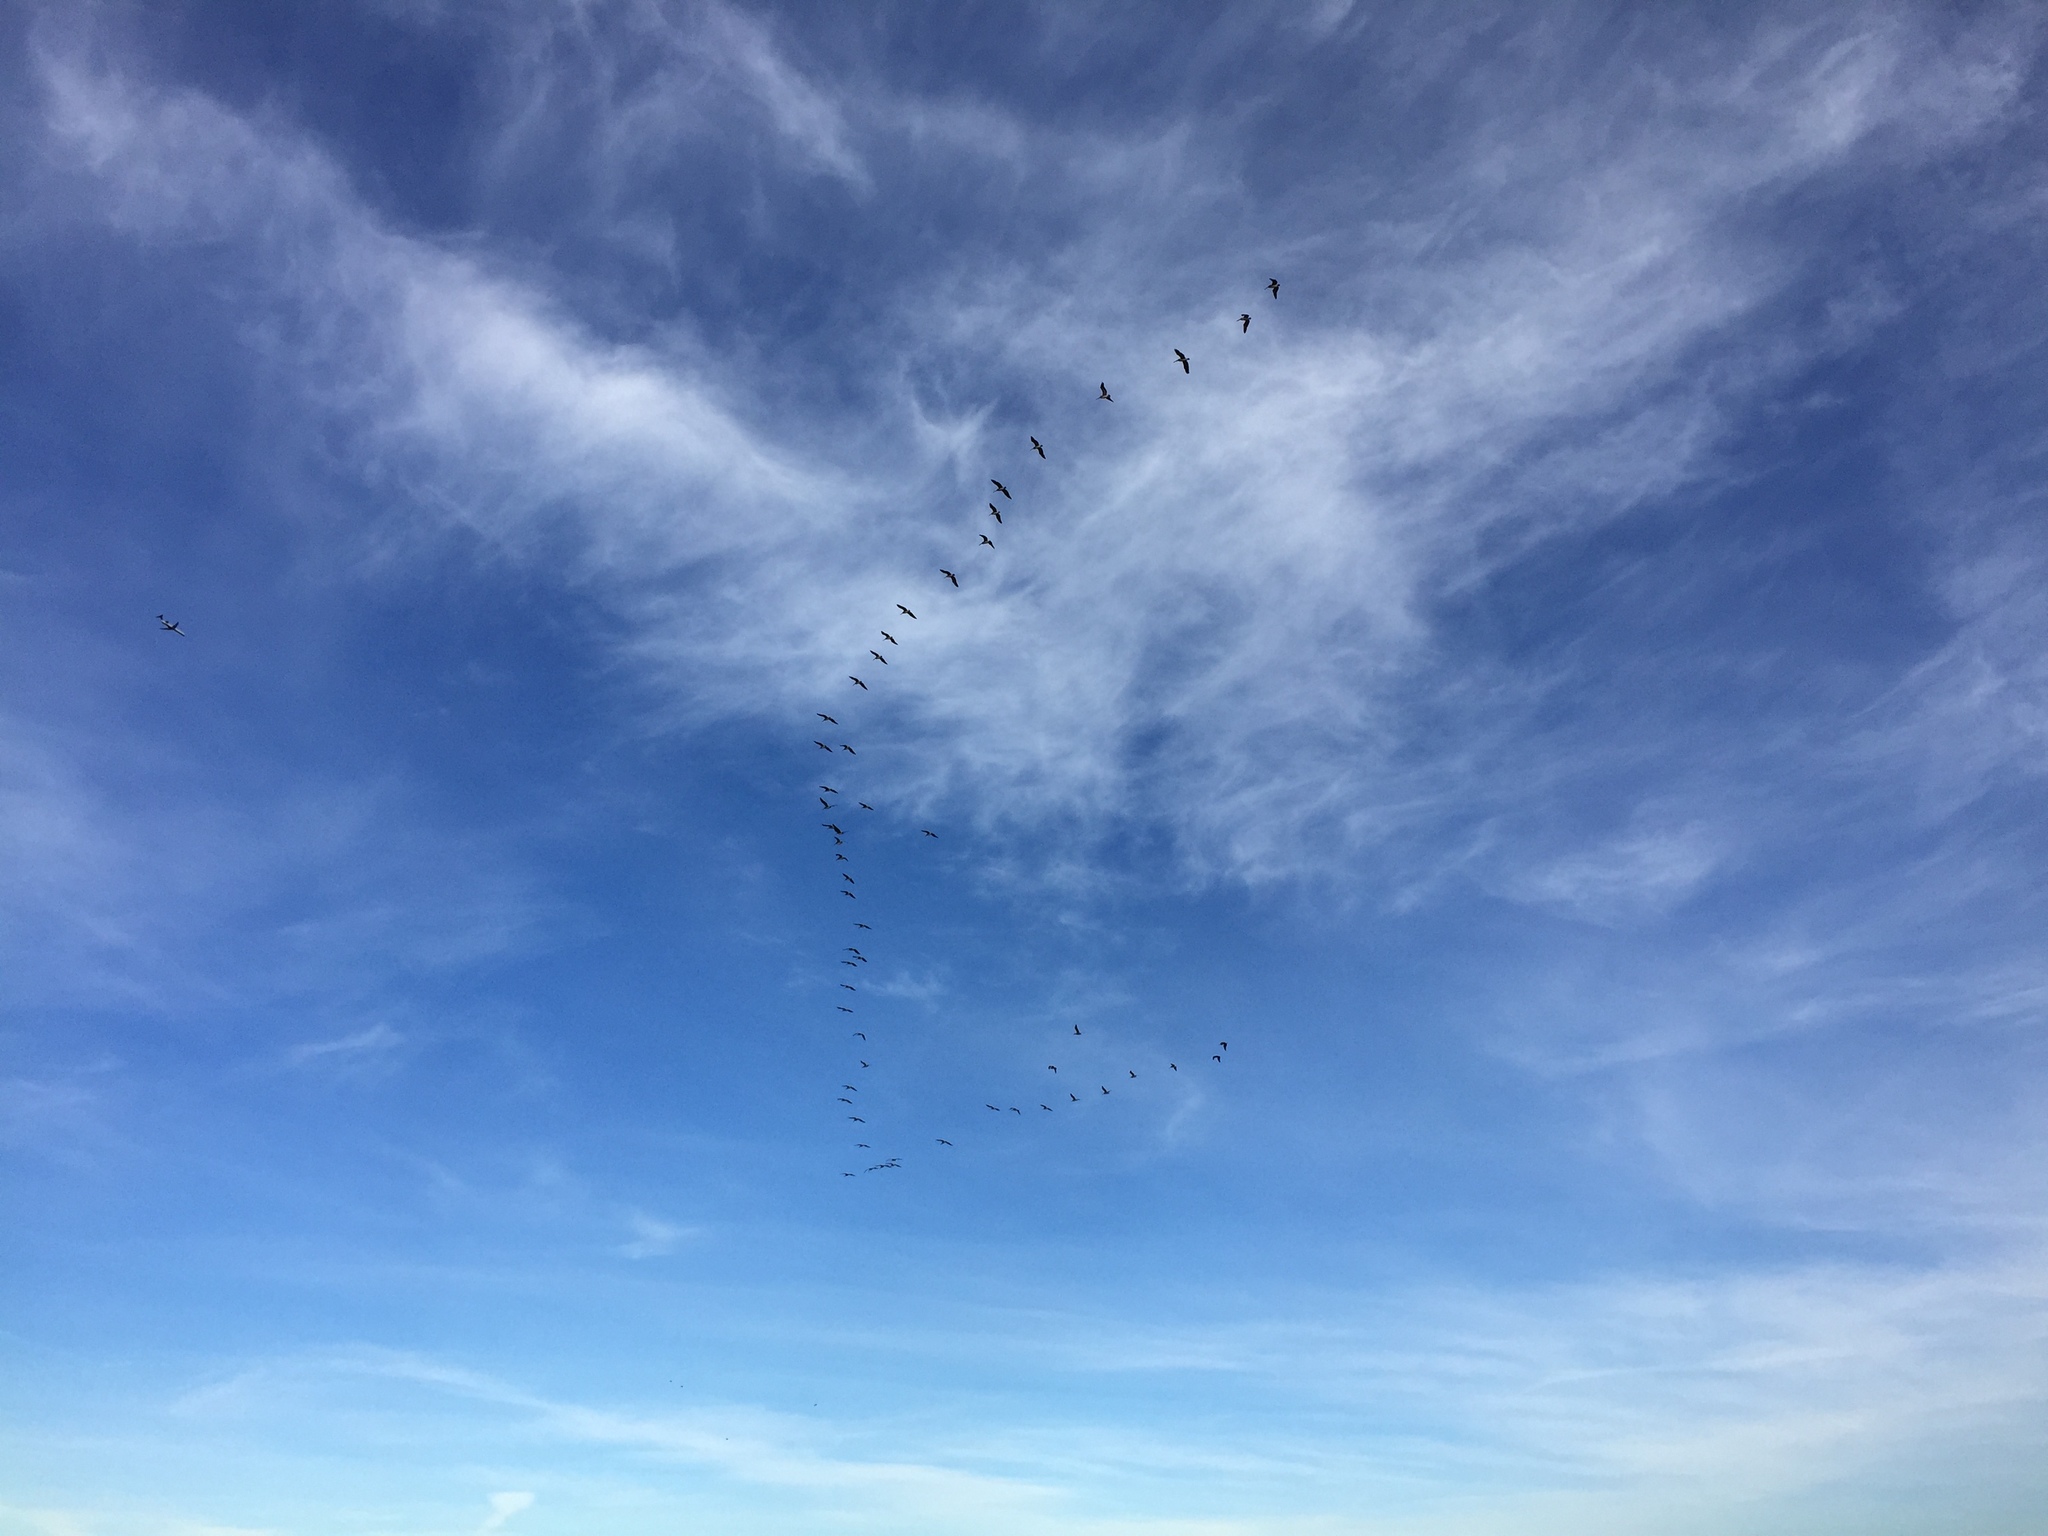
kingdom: Animalia
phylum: Chordata
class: Aves
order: Pelecaniformes
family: Pelecanidae
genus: Pelecanus
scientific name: Pelecanus occidentalis
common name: Brown pelican
